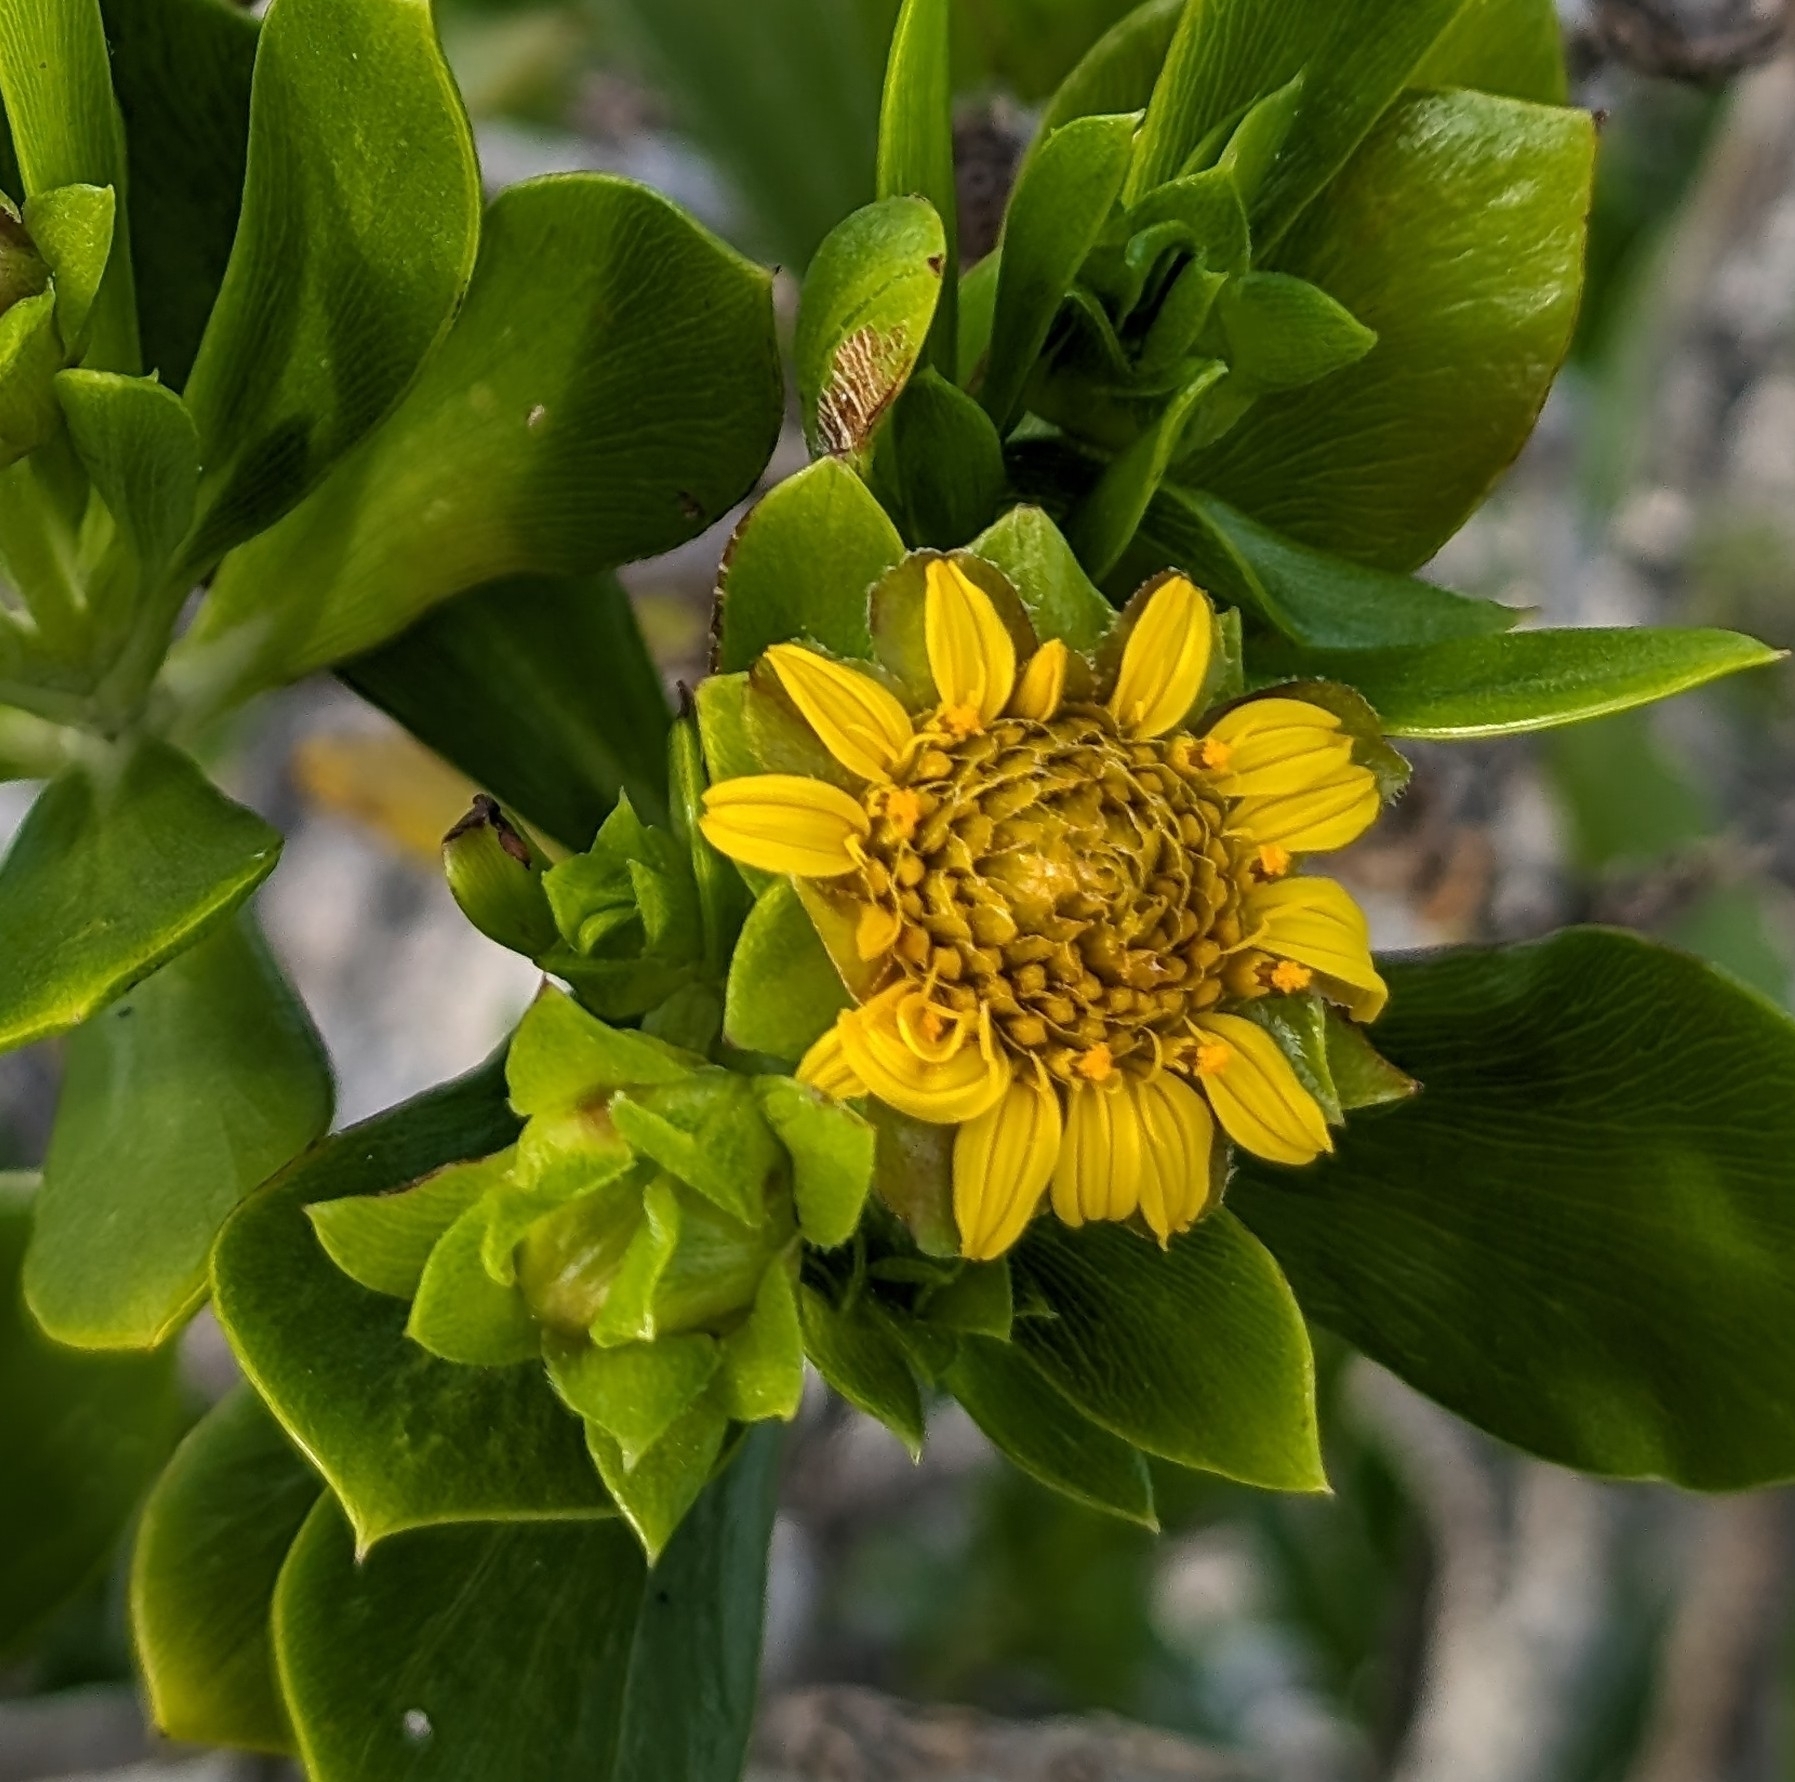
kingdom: Plantae
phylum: Tracheophyta
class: Magnoliopsida
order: Asterales
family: Asteraceae
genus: Borrichia
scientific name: Borrichia arborescens
